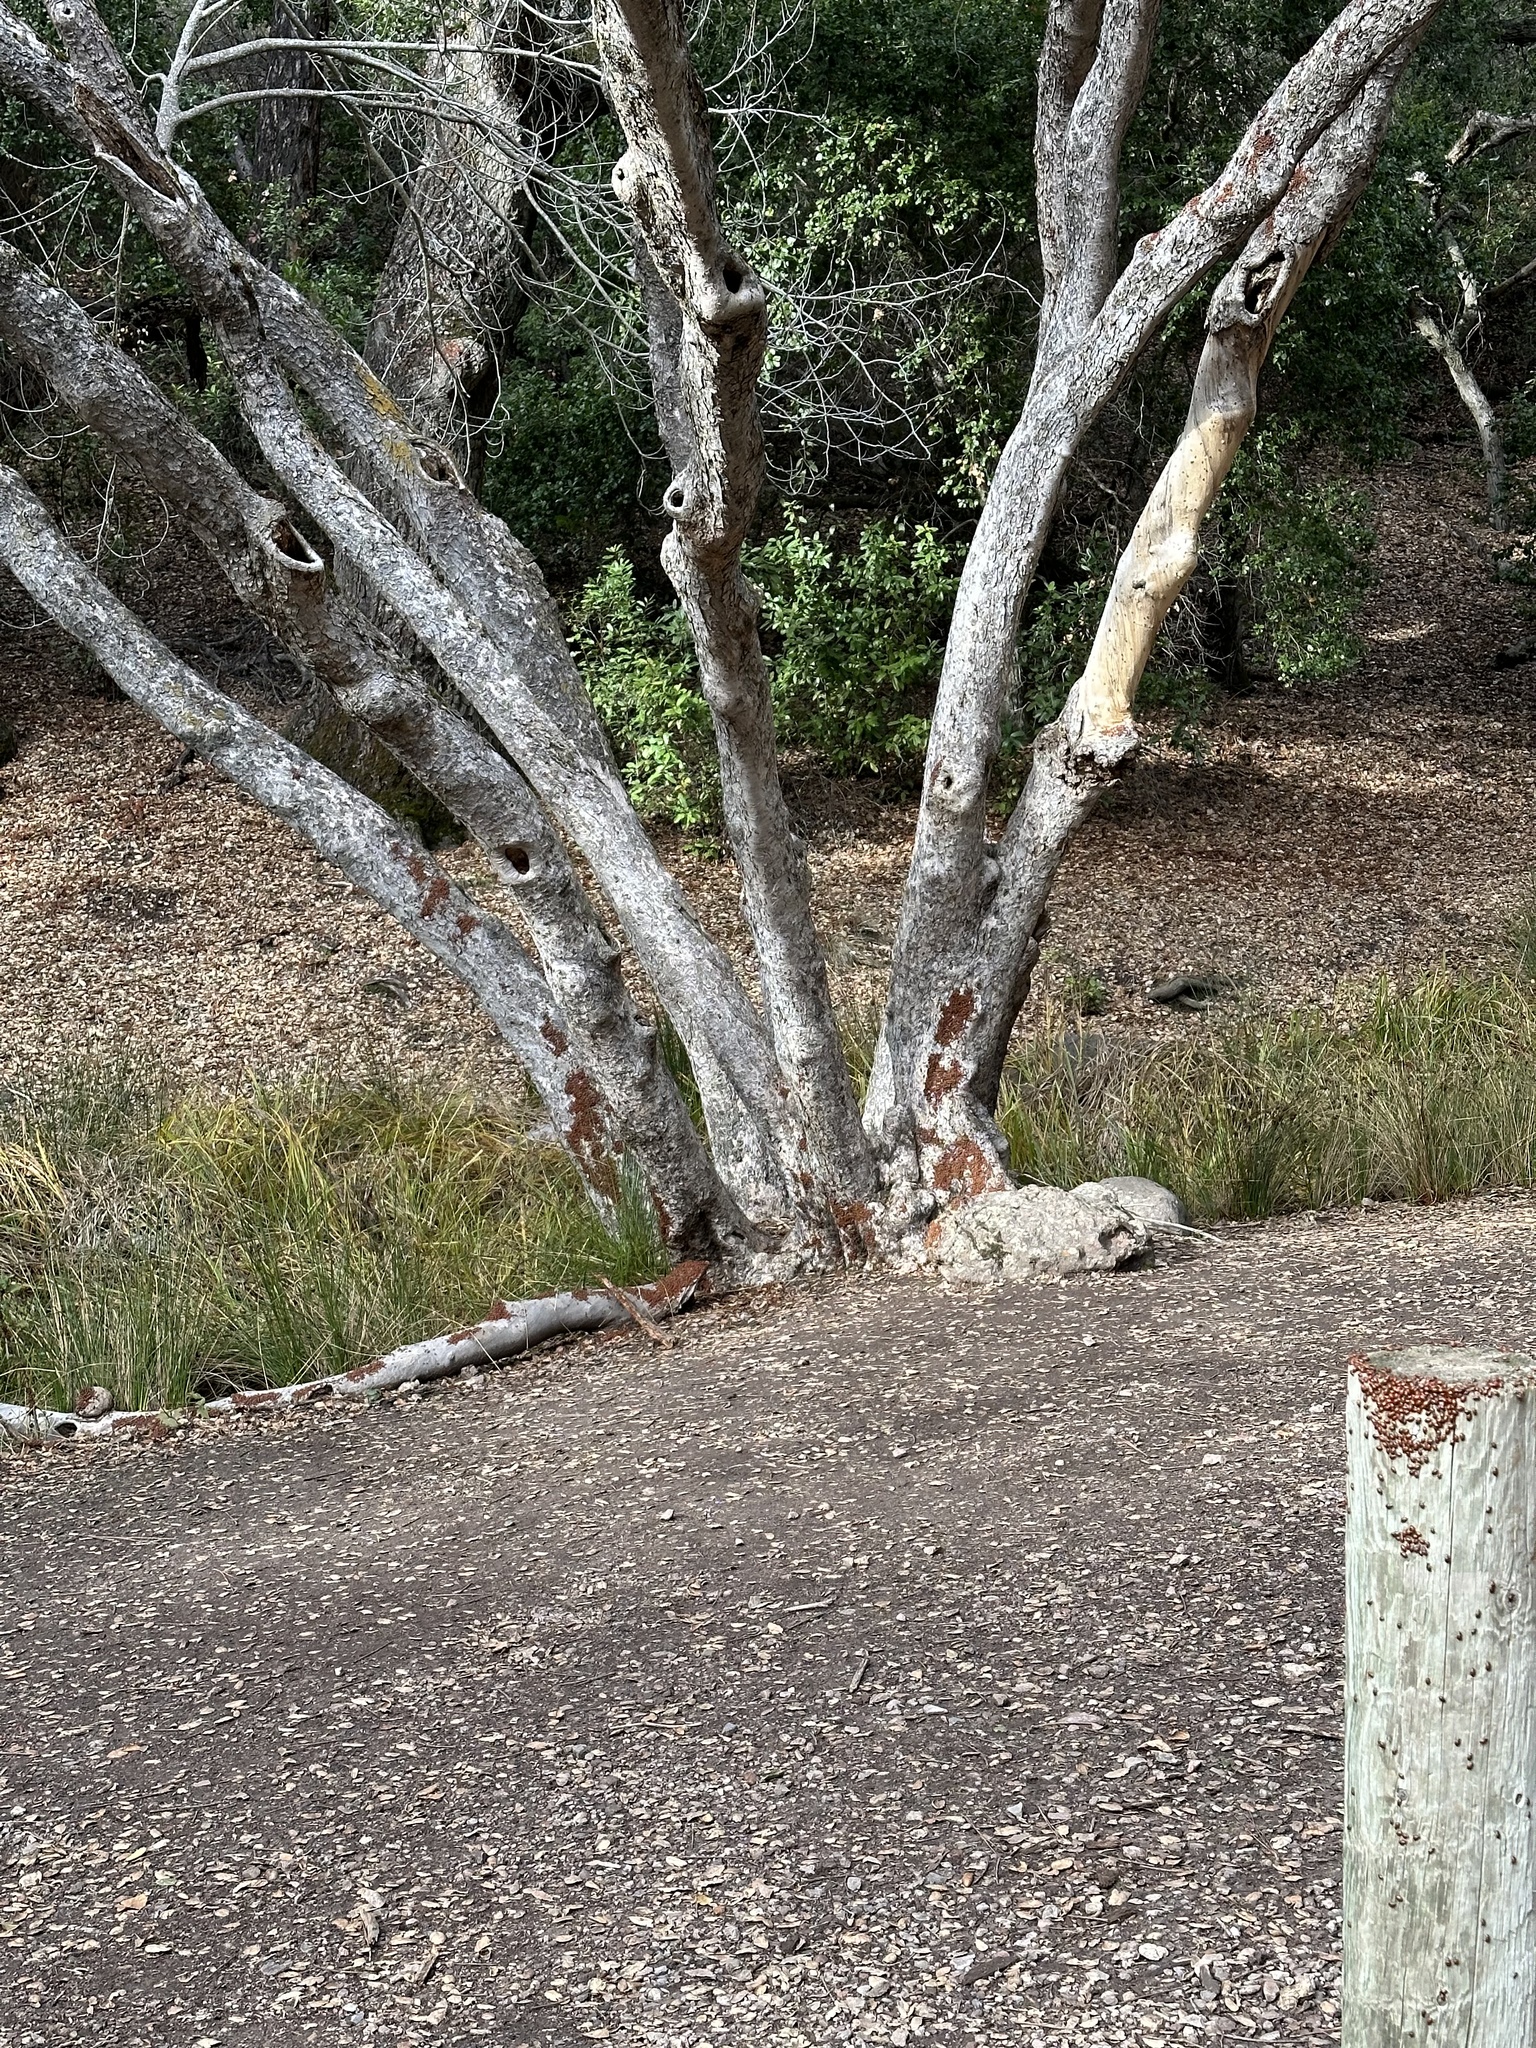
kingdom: Animalia
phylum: Arthropoda
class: Insecta
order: Coleoptera
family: Coccinellidae
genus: Hippodamia
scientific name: Hippodamia convergens
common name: Convergent lady beetle
